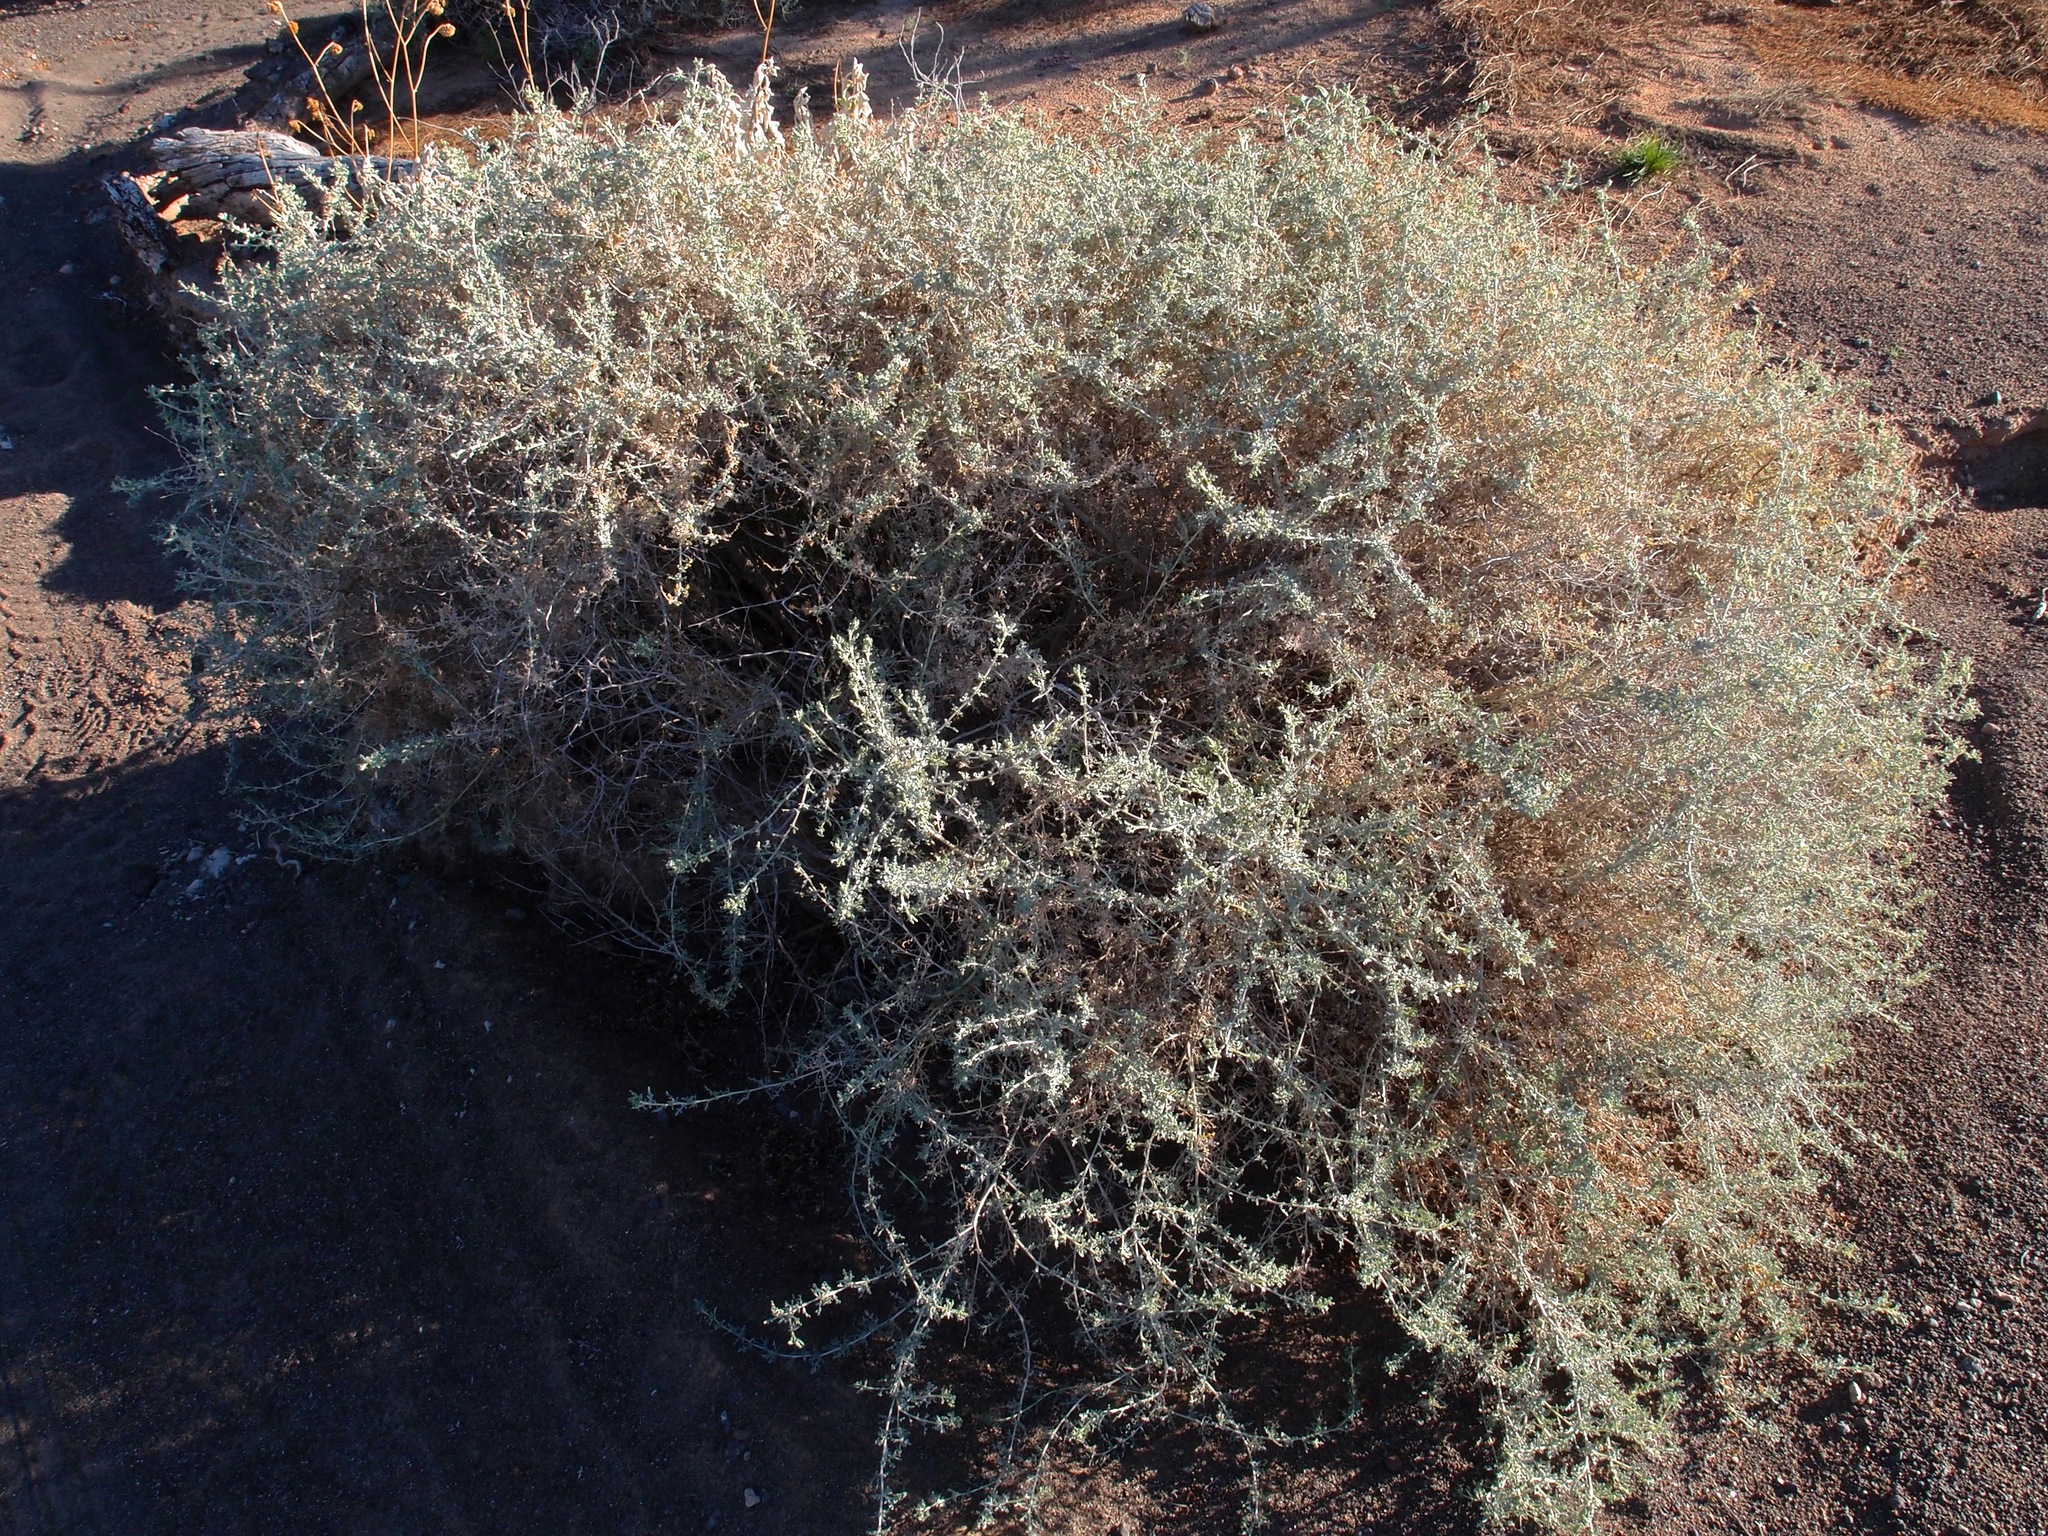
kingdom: Plantae
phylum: Tracheophyta
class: Magnoliopsida
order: Asterales
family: Asteraceae
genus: Ambrosia
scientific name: Ambrosia dumosa
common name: Bur-sage
